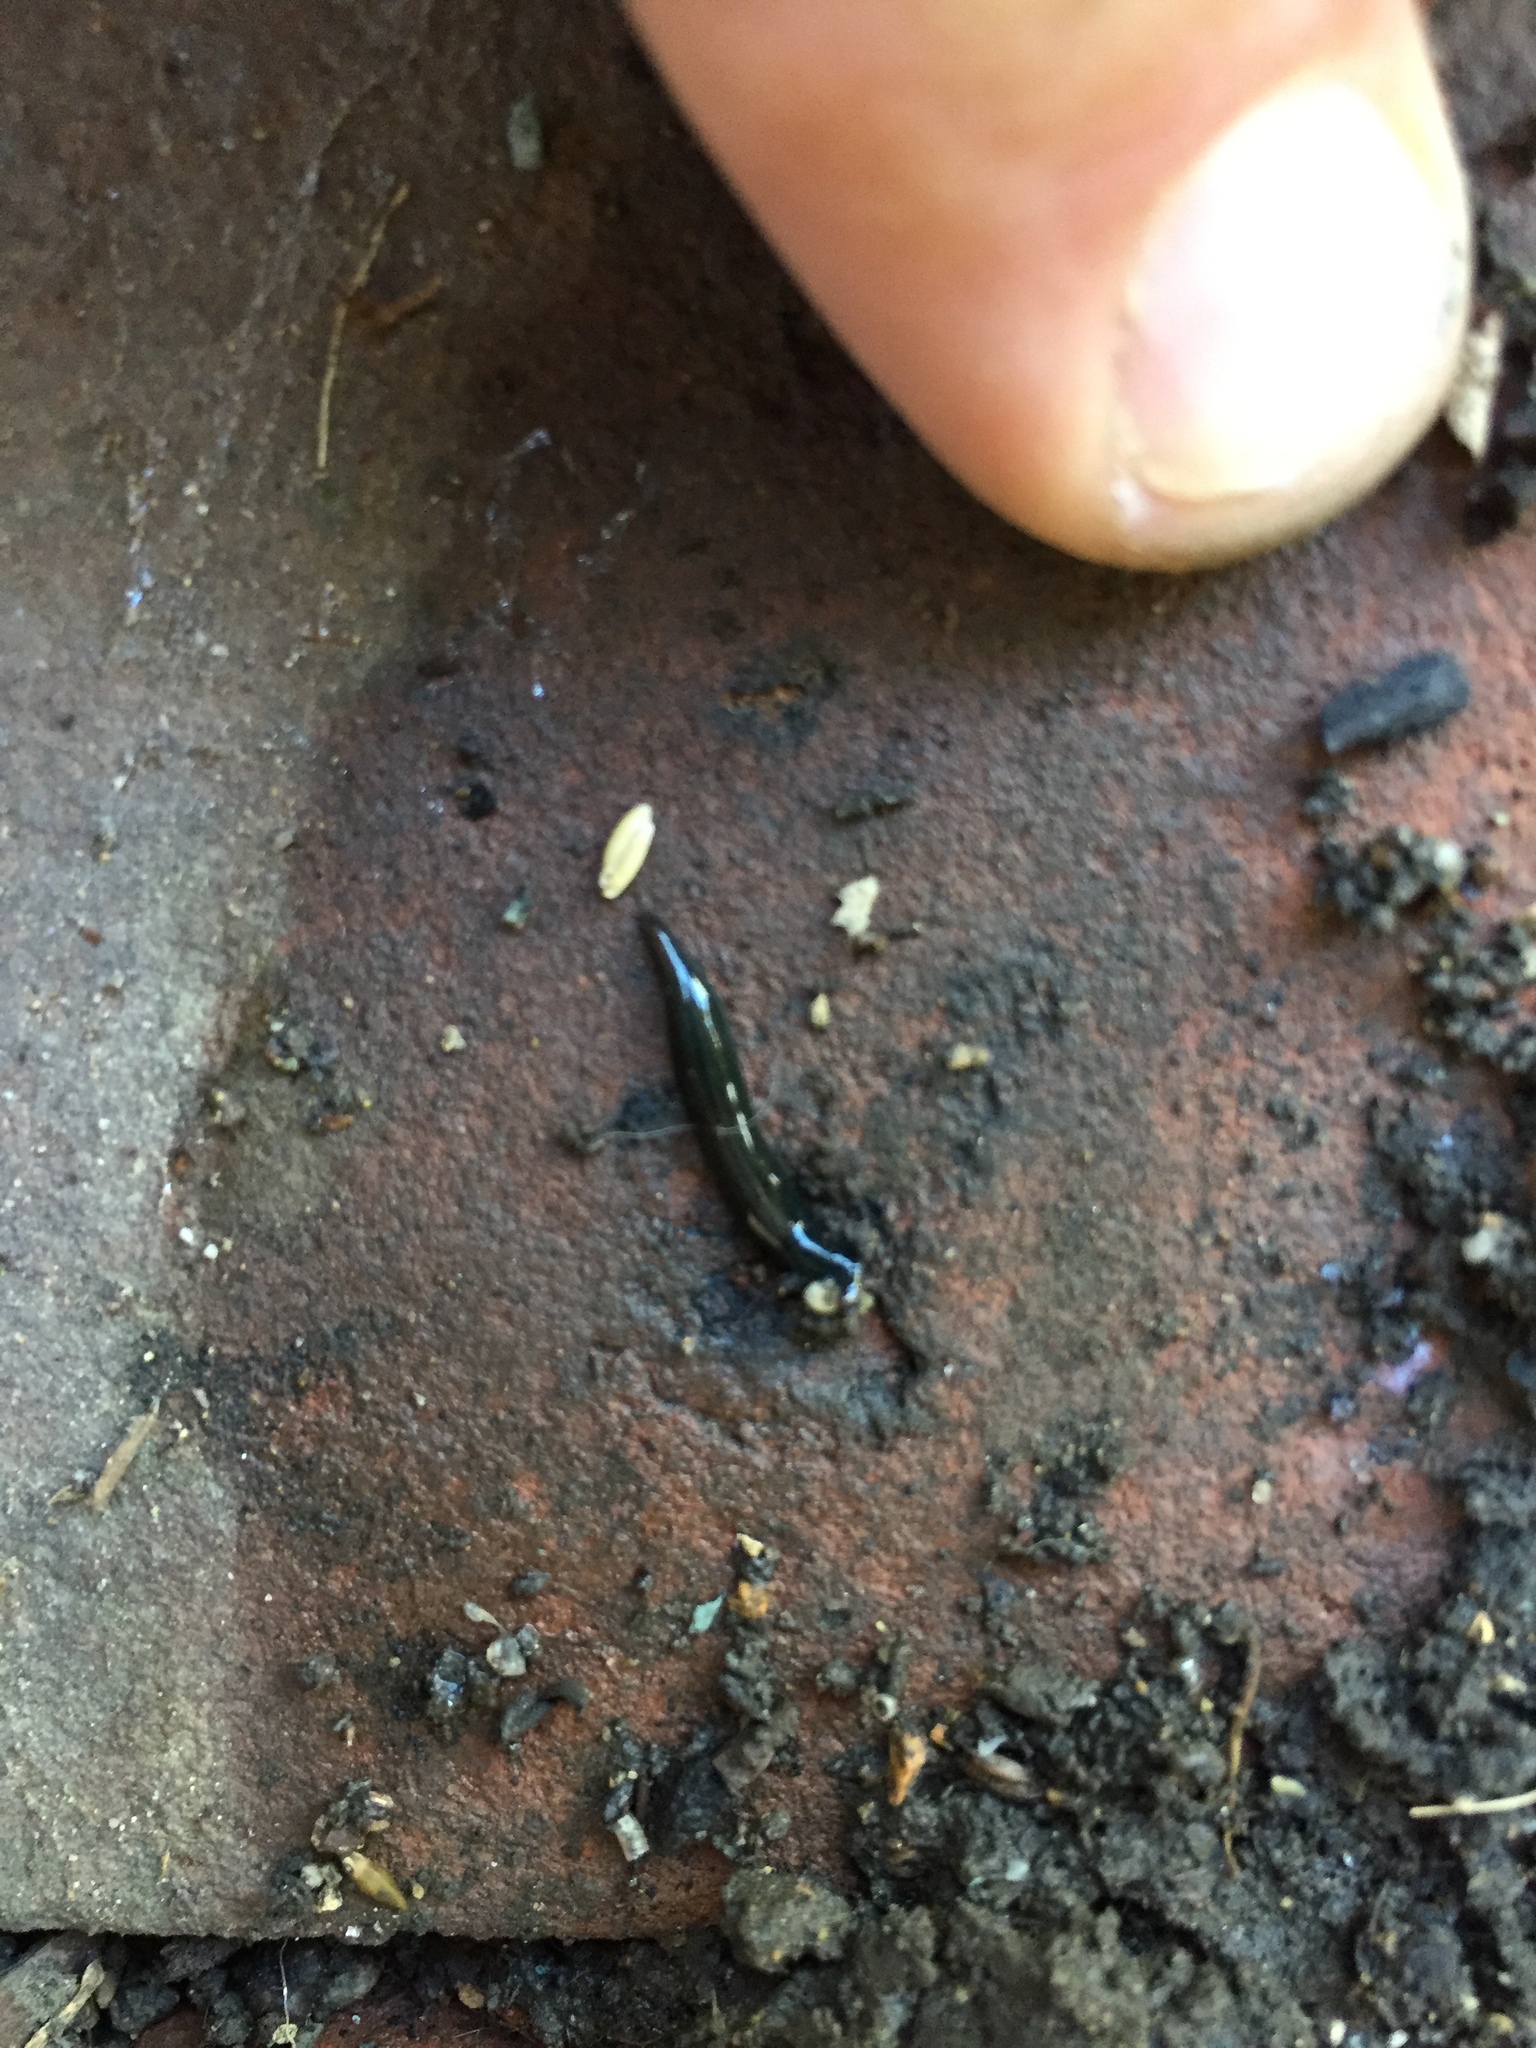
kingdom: Animalia
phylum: Platyhelminthes
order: Tricladida
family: Geoplanidae
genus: Parakontikia
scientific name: Parakontikia ventrolineata
